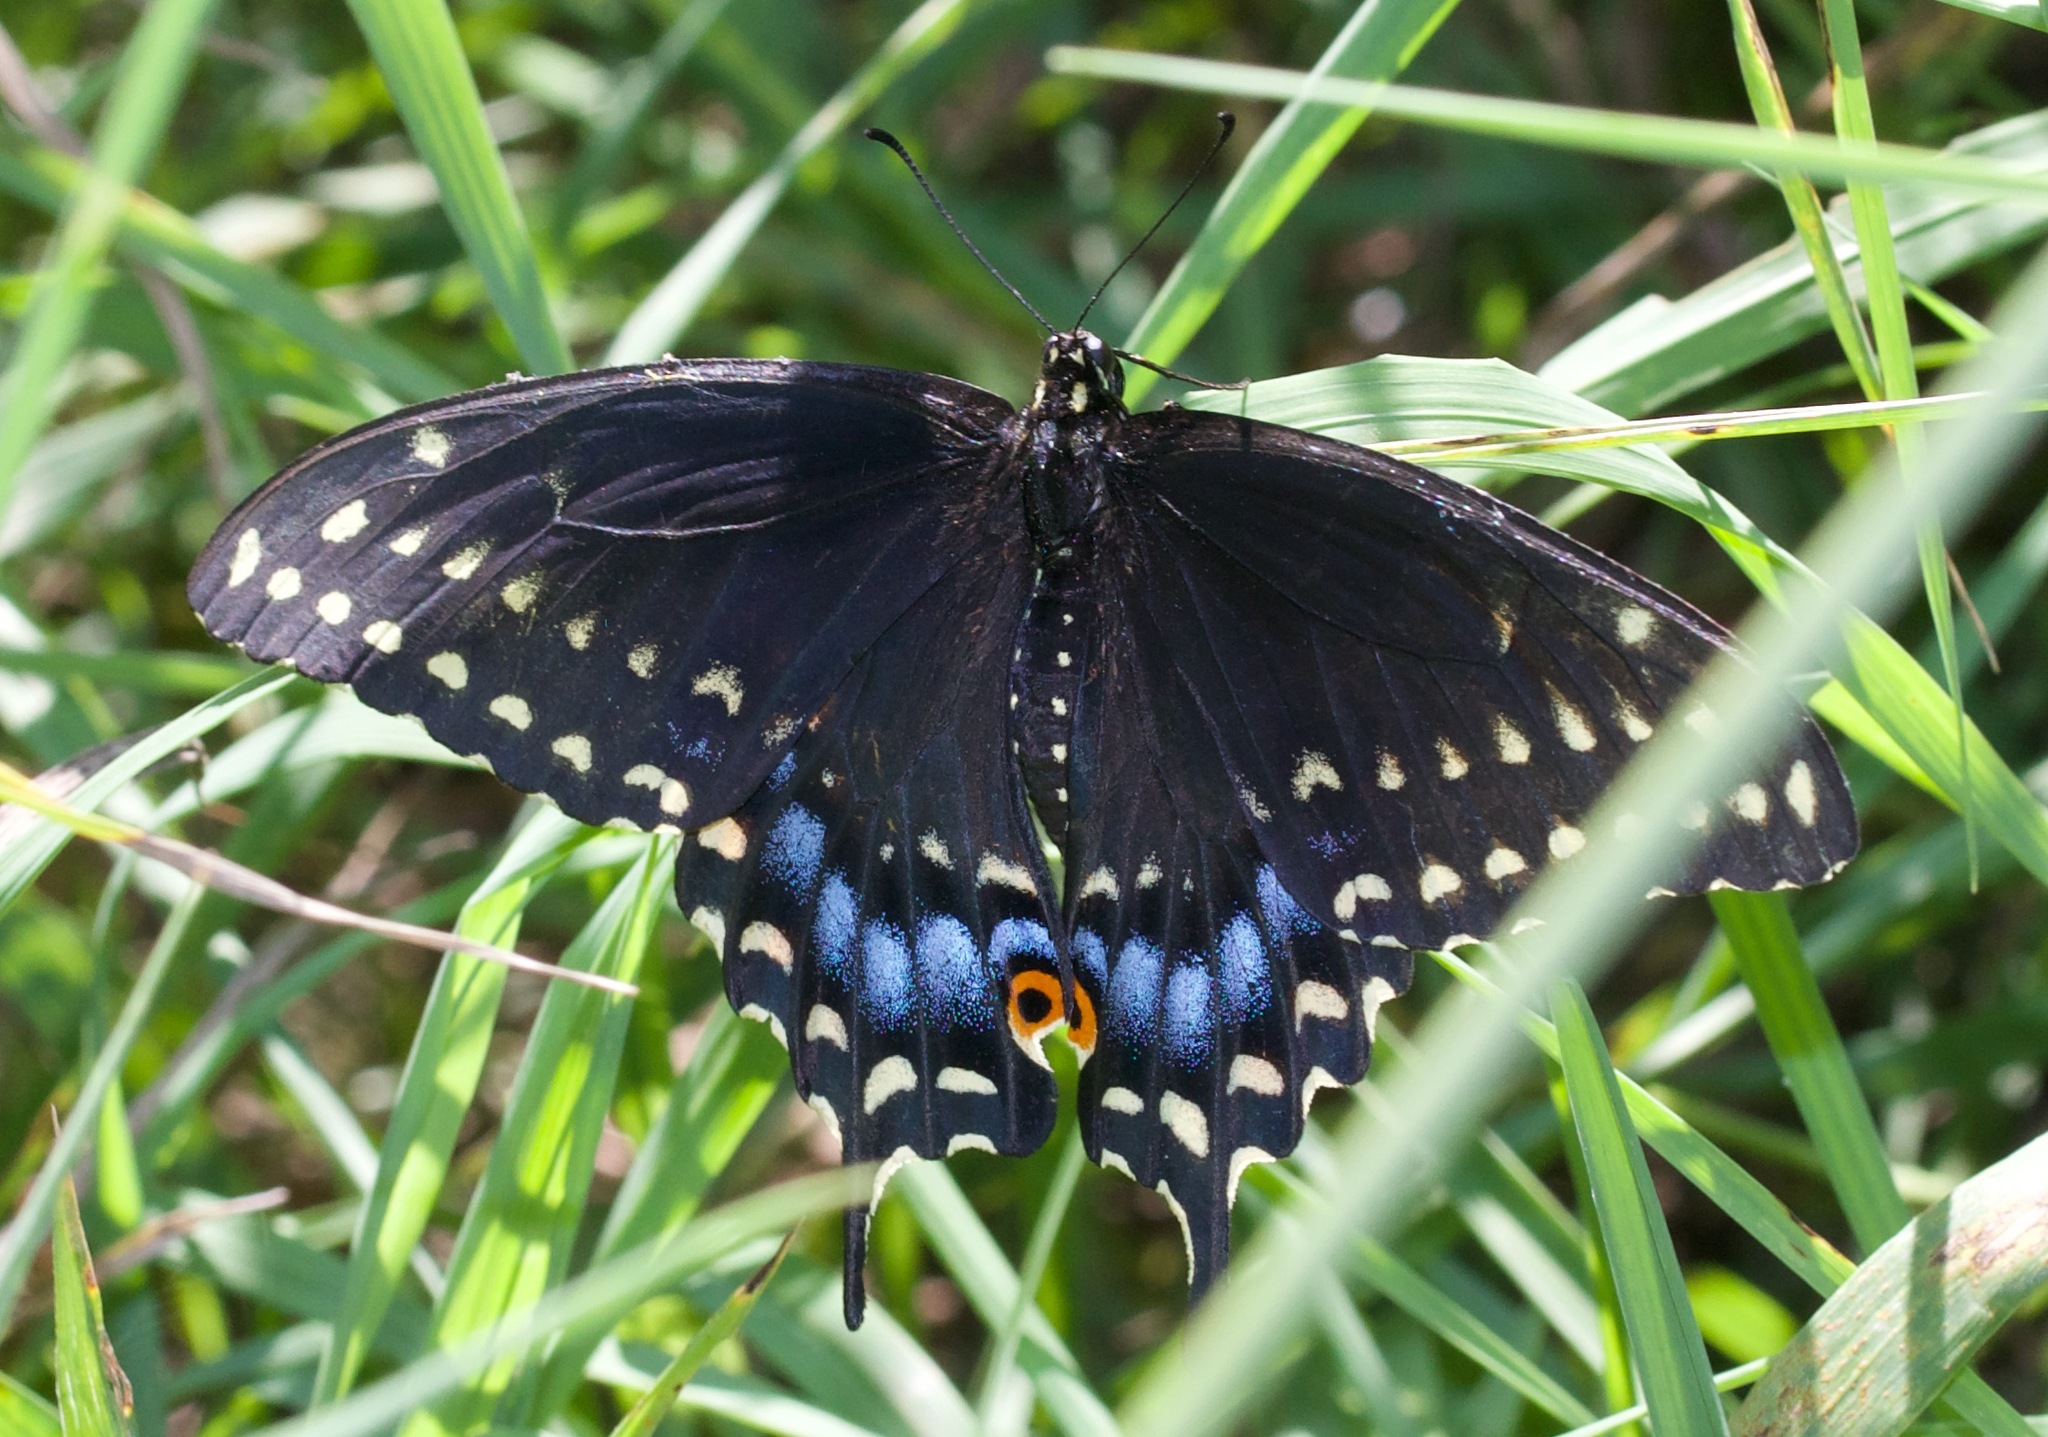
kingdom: Animalia
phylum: Arthropoda
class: Insecta
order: Lepidoptera
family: Papilionidae
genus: Papilio
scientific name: Papilio polyxenes
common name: Black swallowtail
